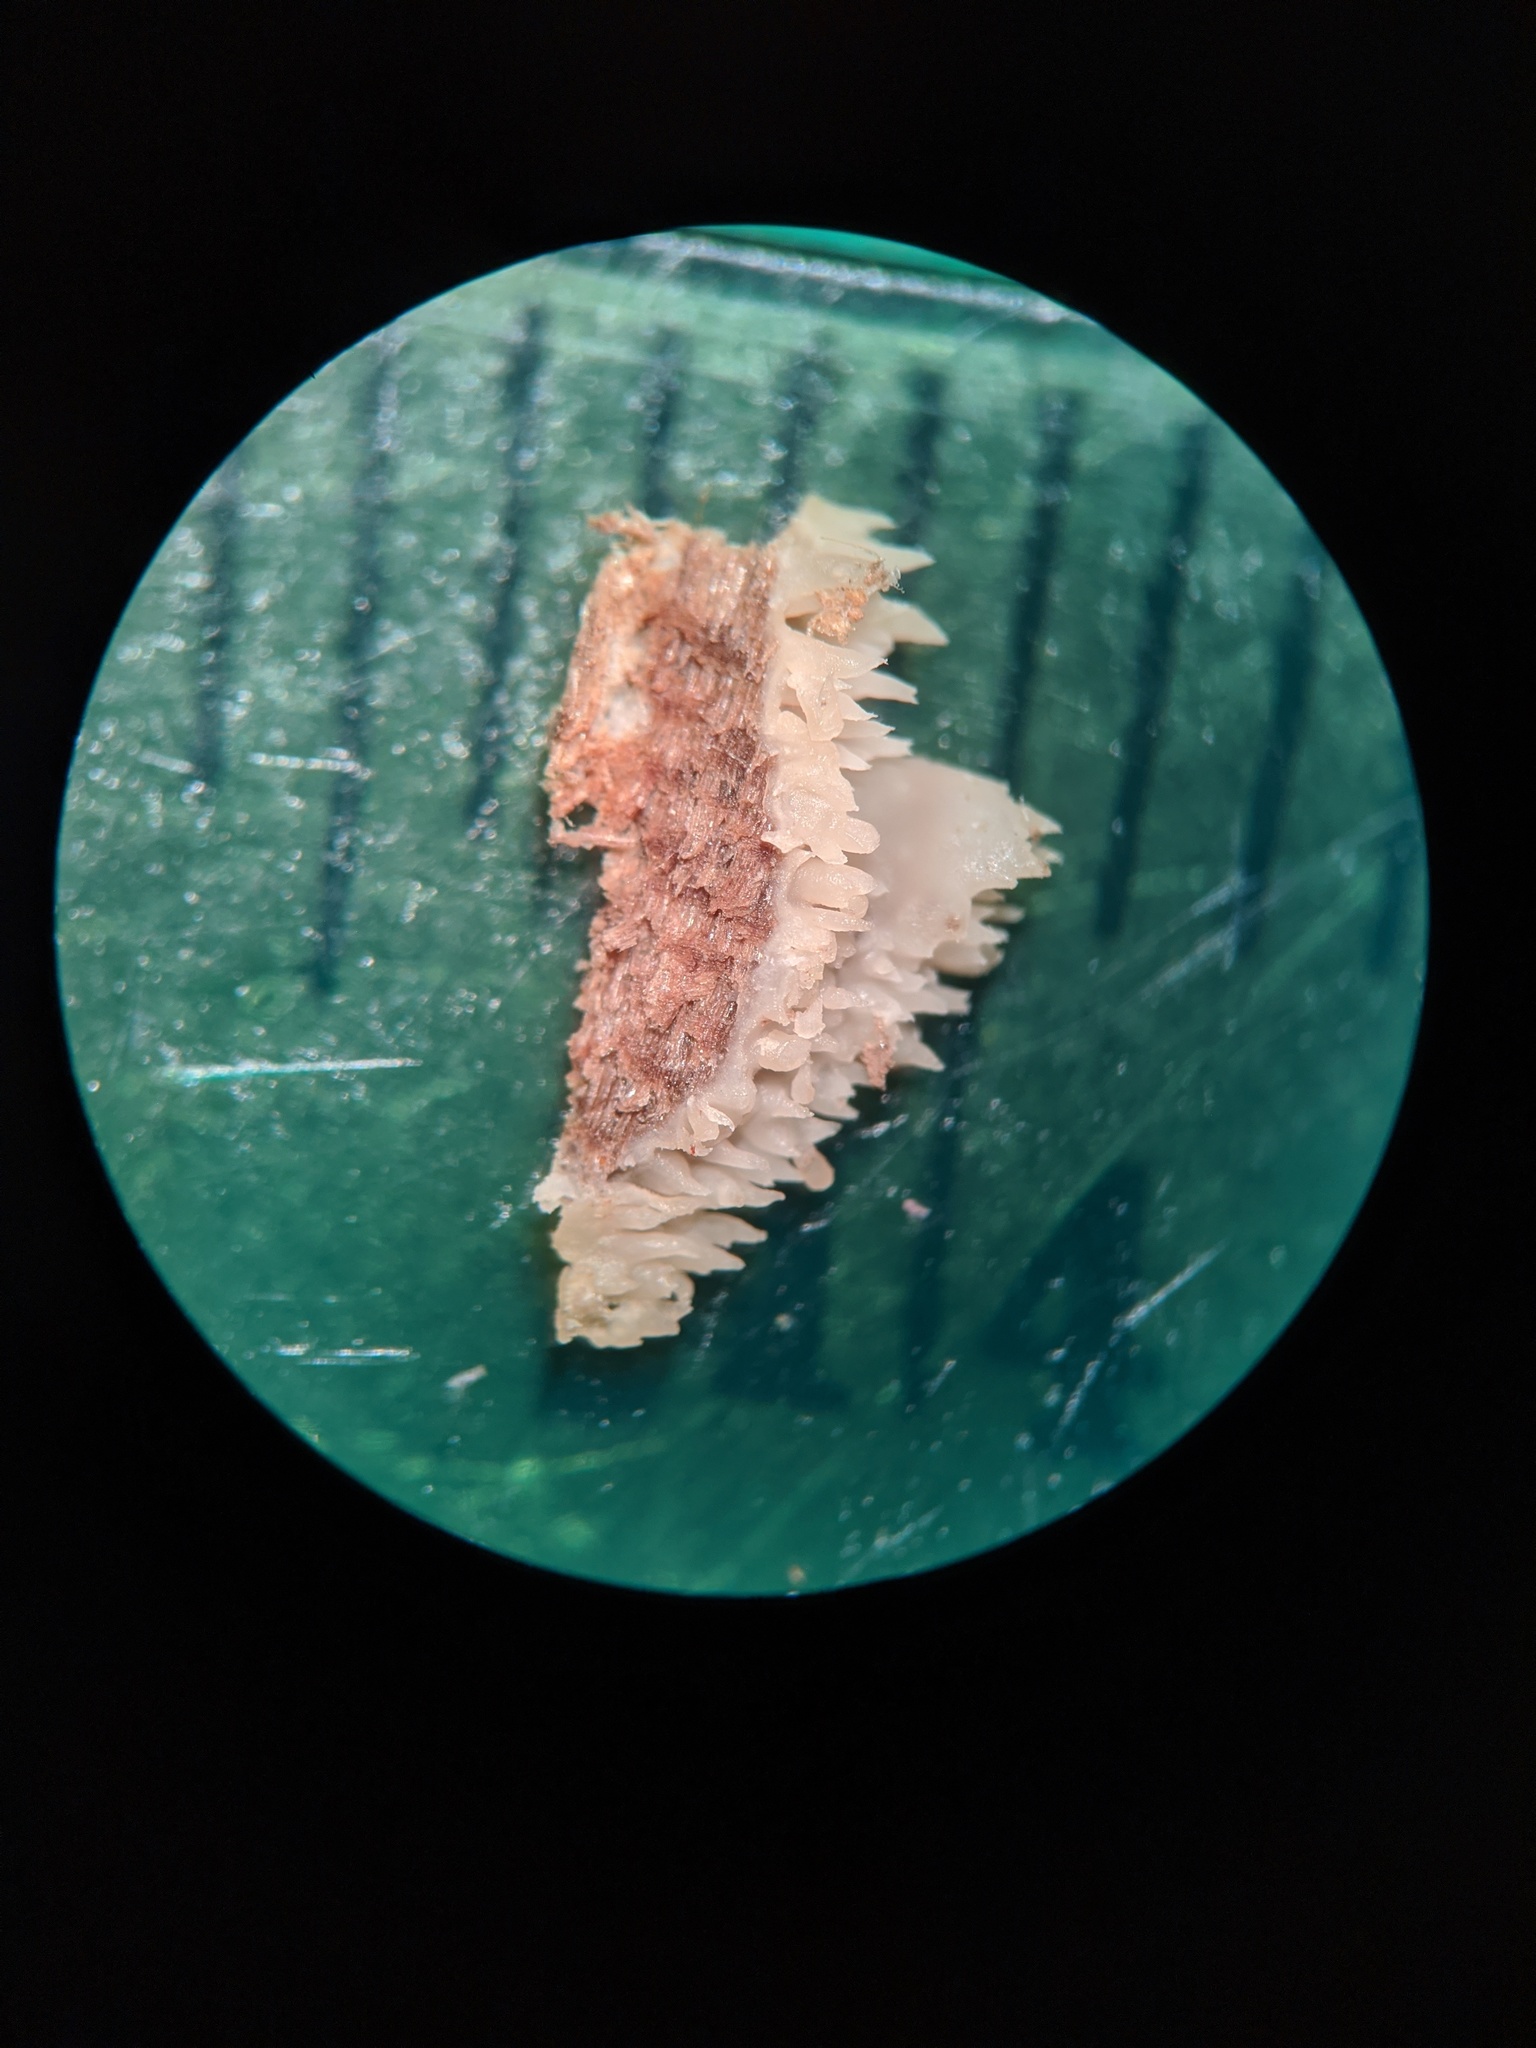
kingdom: Fungi
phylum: Basidiomycota
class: Agaricomycetes
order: Polyporales
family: Meruliaceae
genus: Mycoacia
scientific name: Mycoacia fuscoatra
